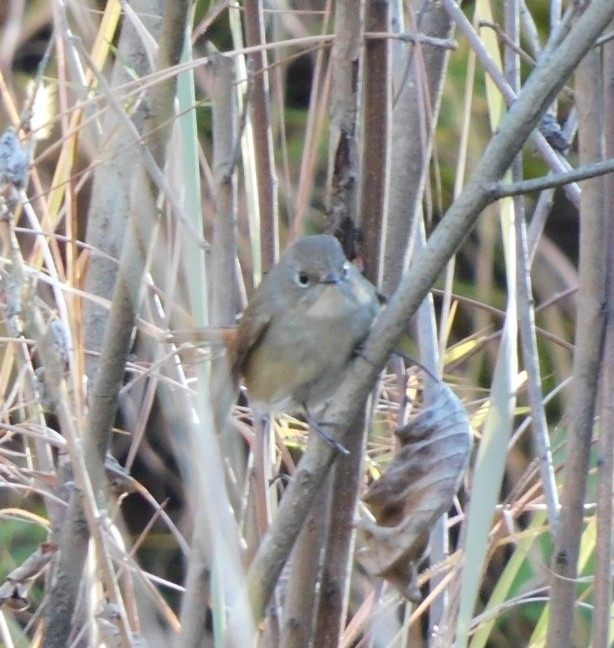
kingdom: Animalia
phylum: Chordata
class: Aves
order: Passeriformes
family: Muscicapidae
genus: Ficedula
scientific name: Ficedula tricolor
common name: Slaty-blue flycatcher
